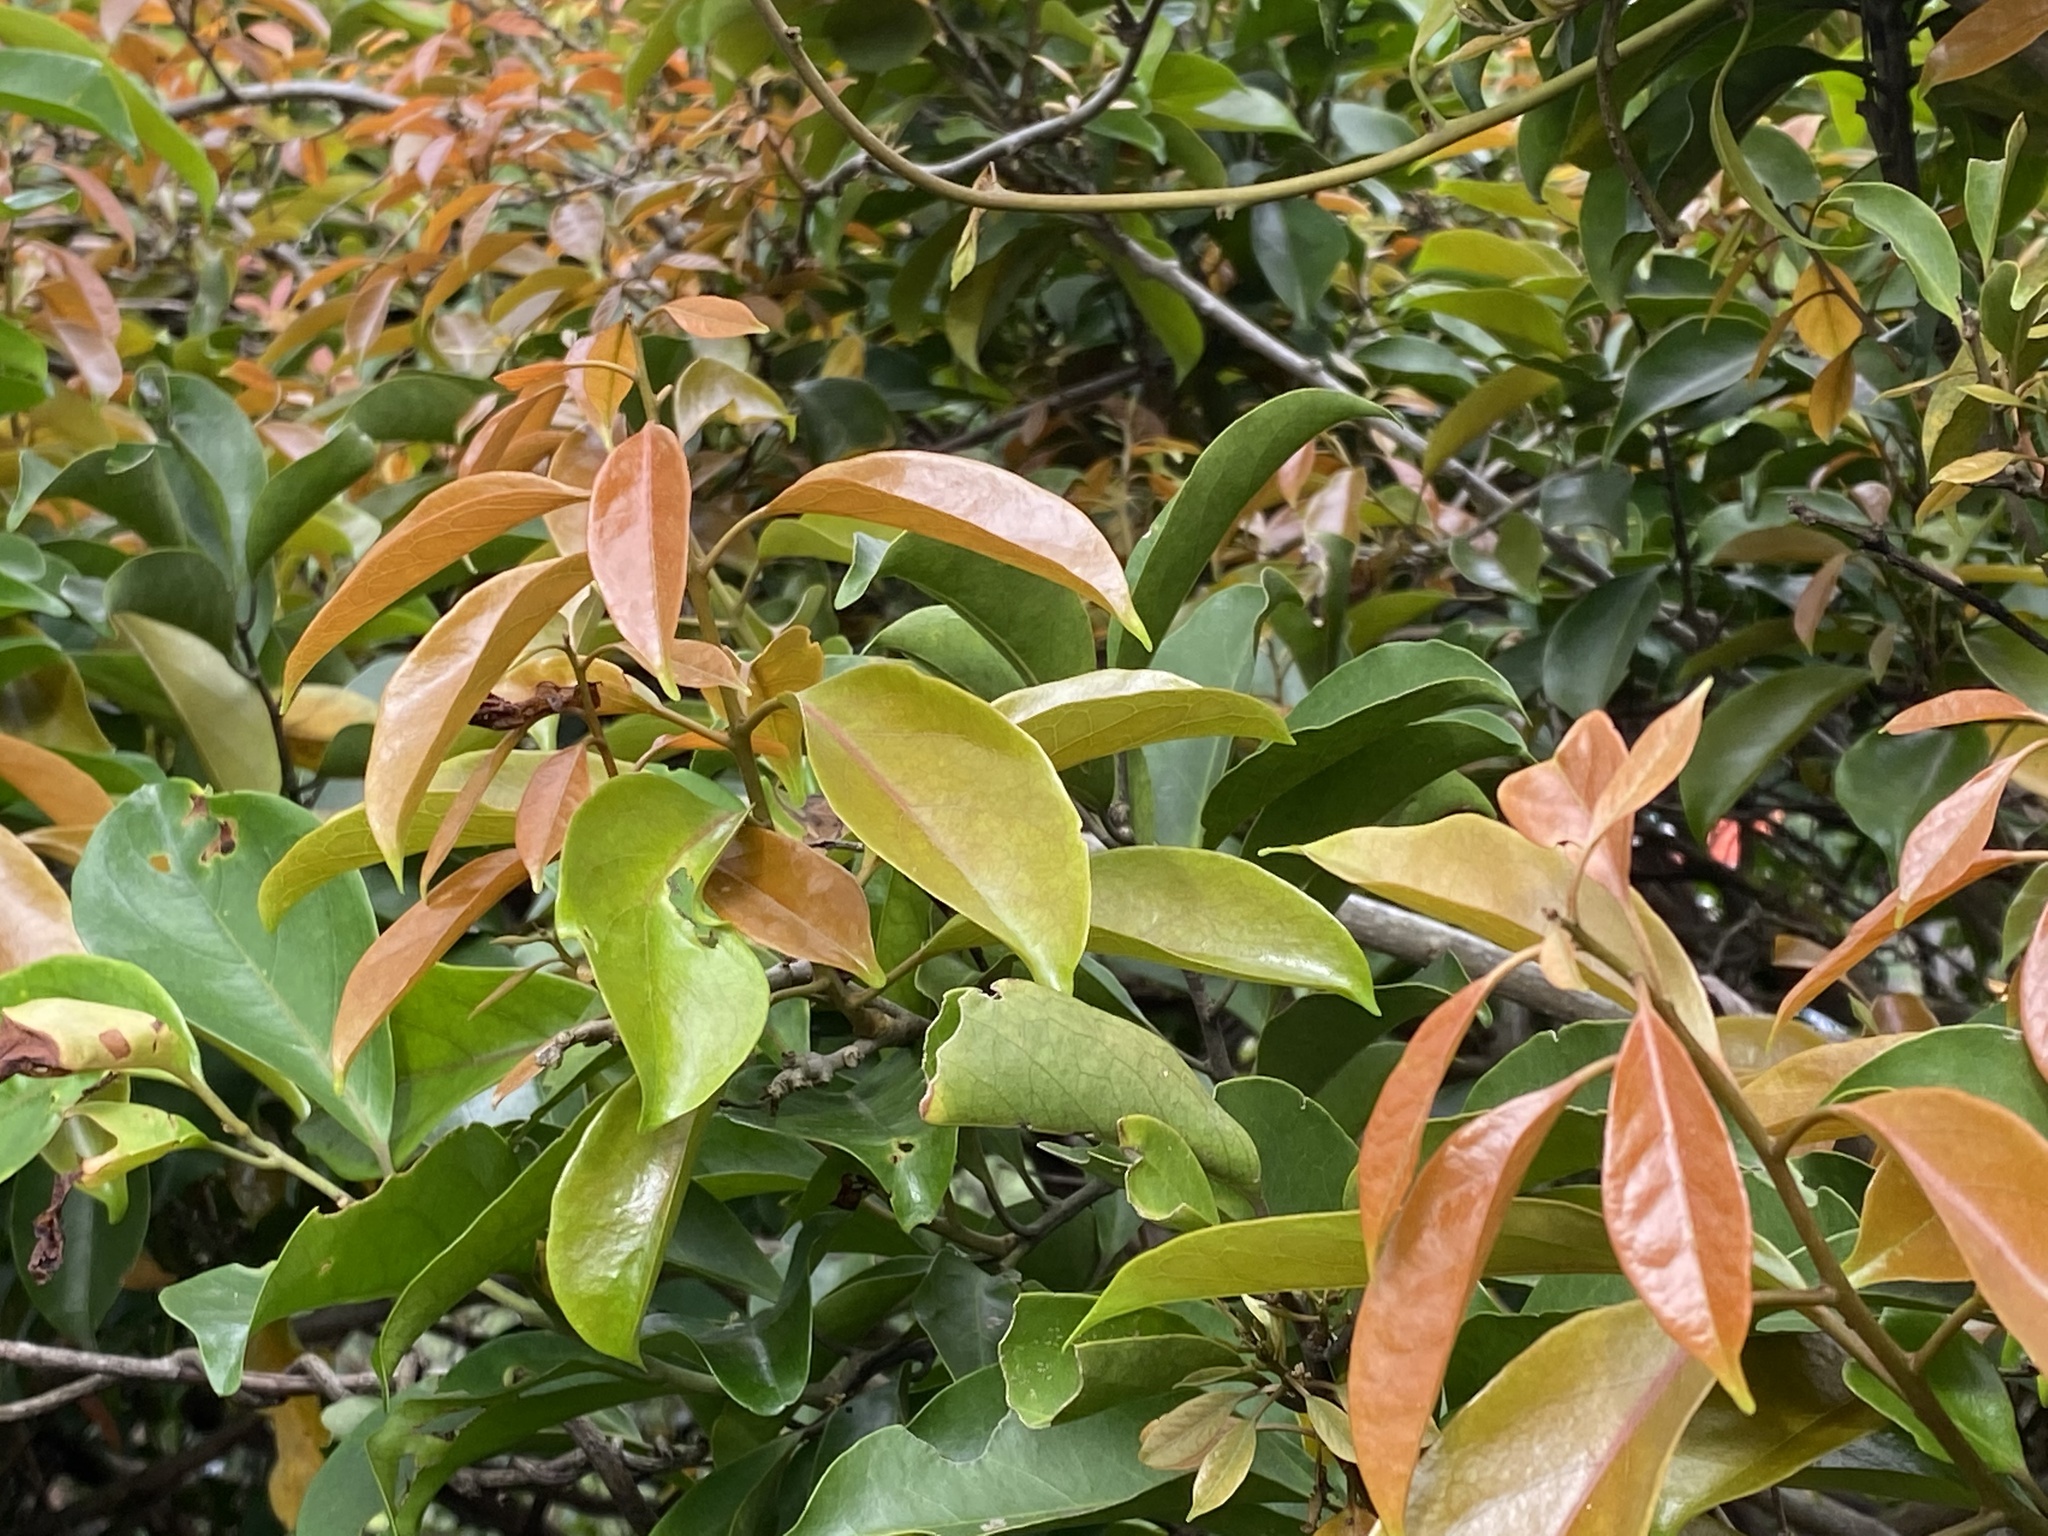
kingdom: Plantae
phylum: Tracheophyta
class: Magnoliopsida
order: Solanales
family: Convolvulaceae
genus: Erycibe
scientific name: Erycibe henryi
